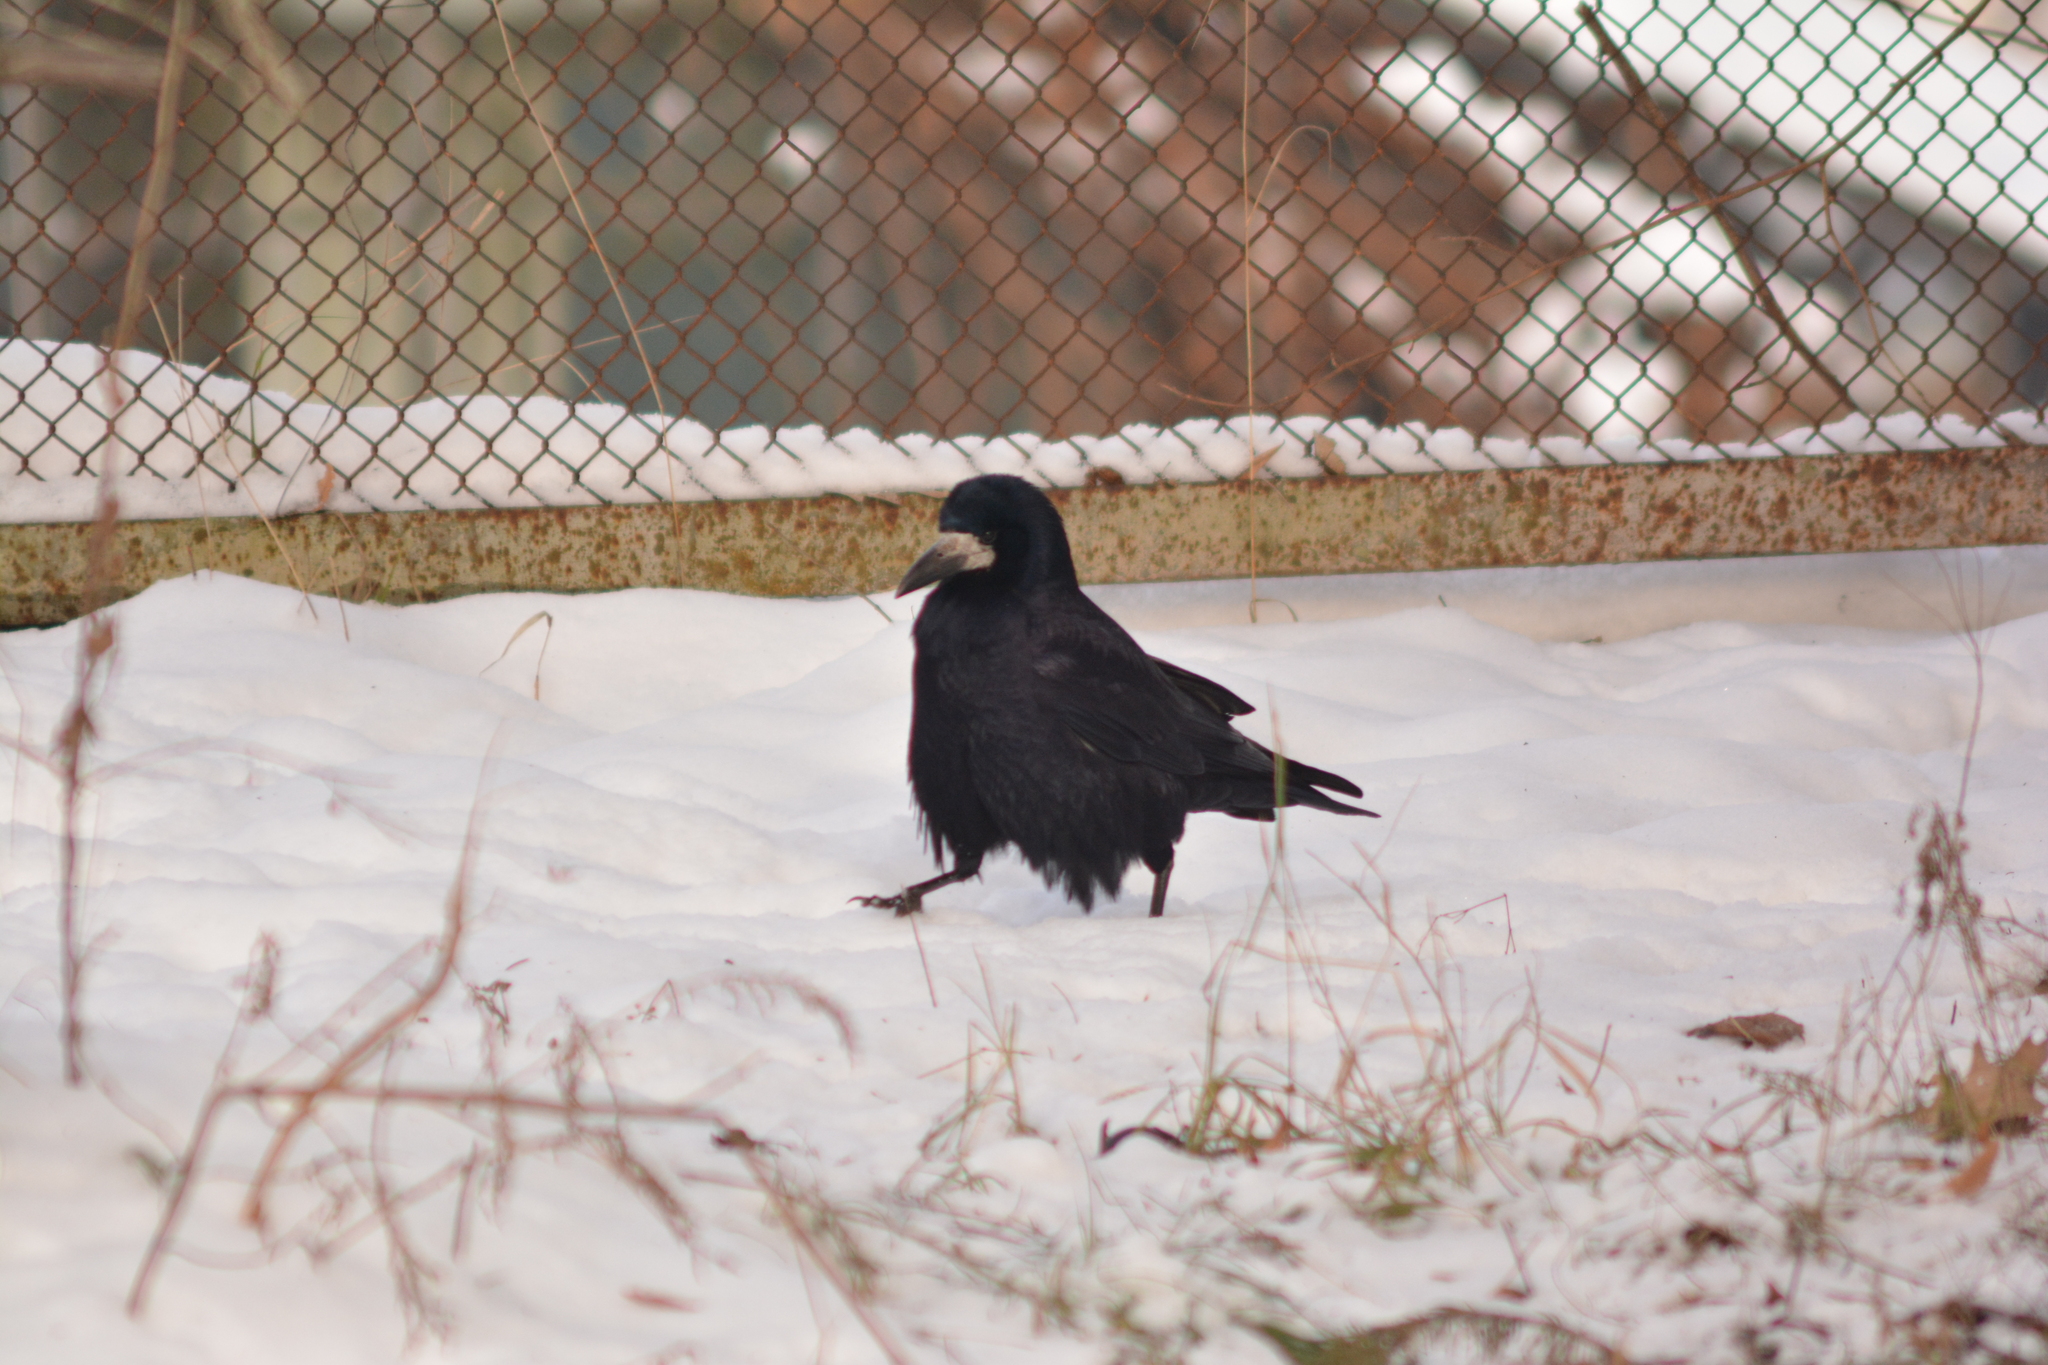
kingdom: Animalia
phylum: Chordata
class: Aves
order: Passeriformes
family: Corvidae
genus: Corvus
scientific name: Corvus frugilegus
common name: Rook
